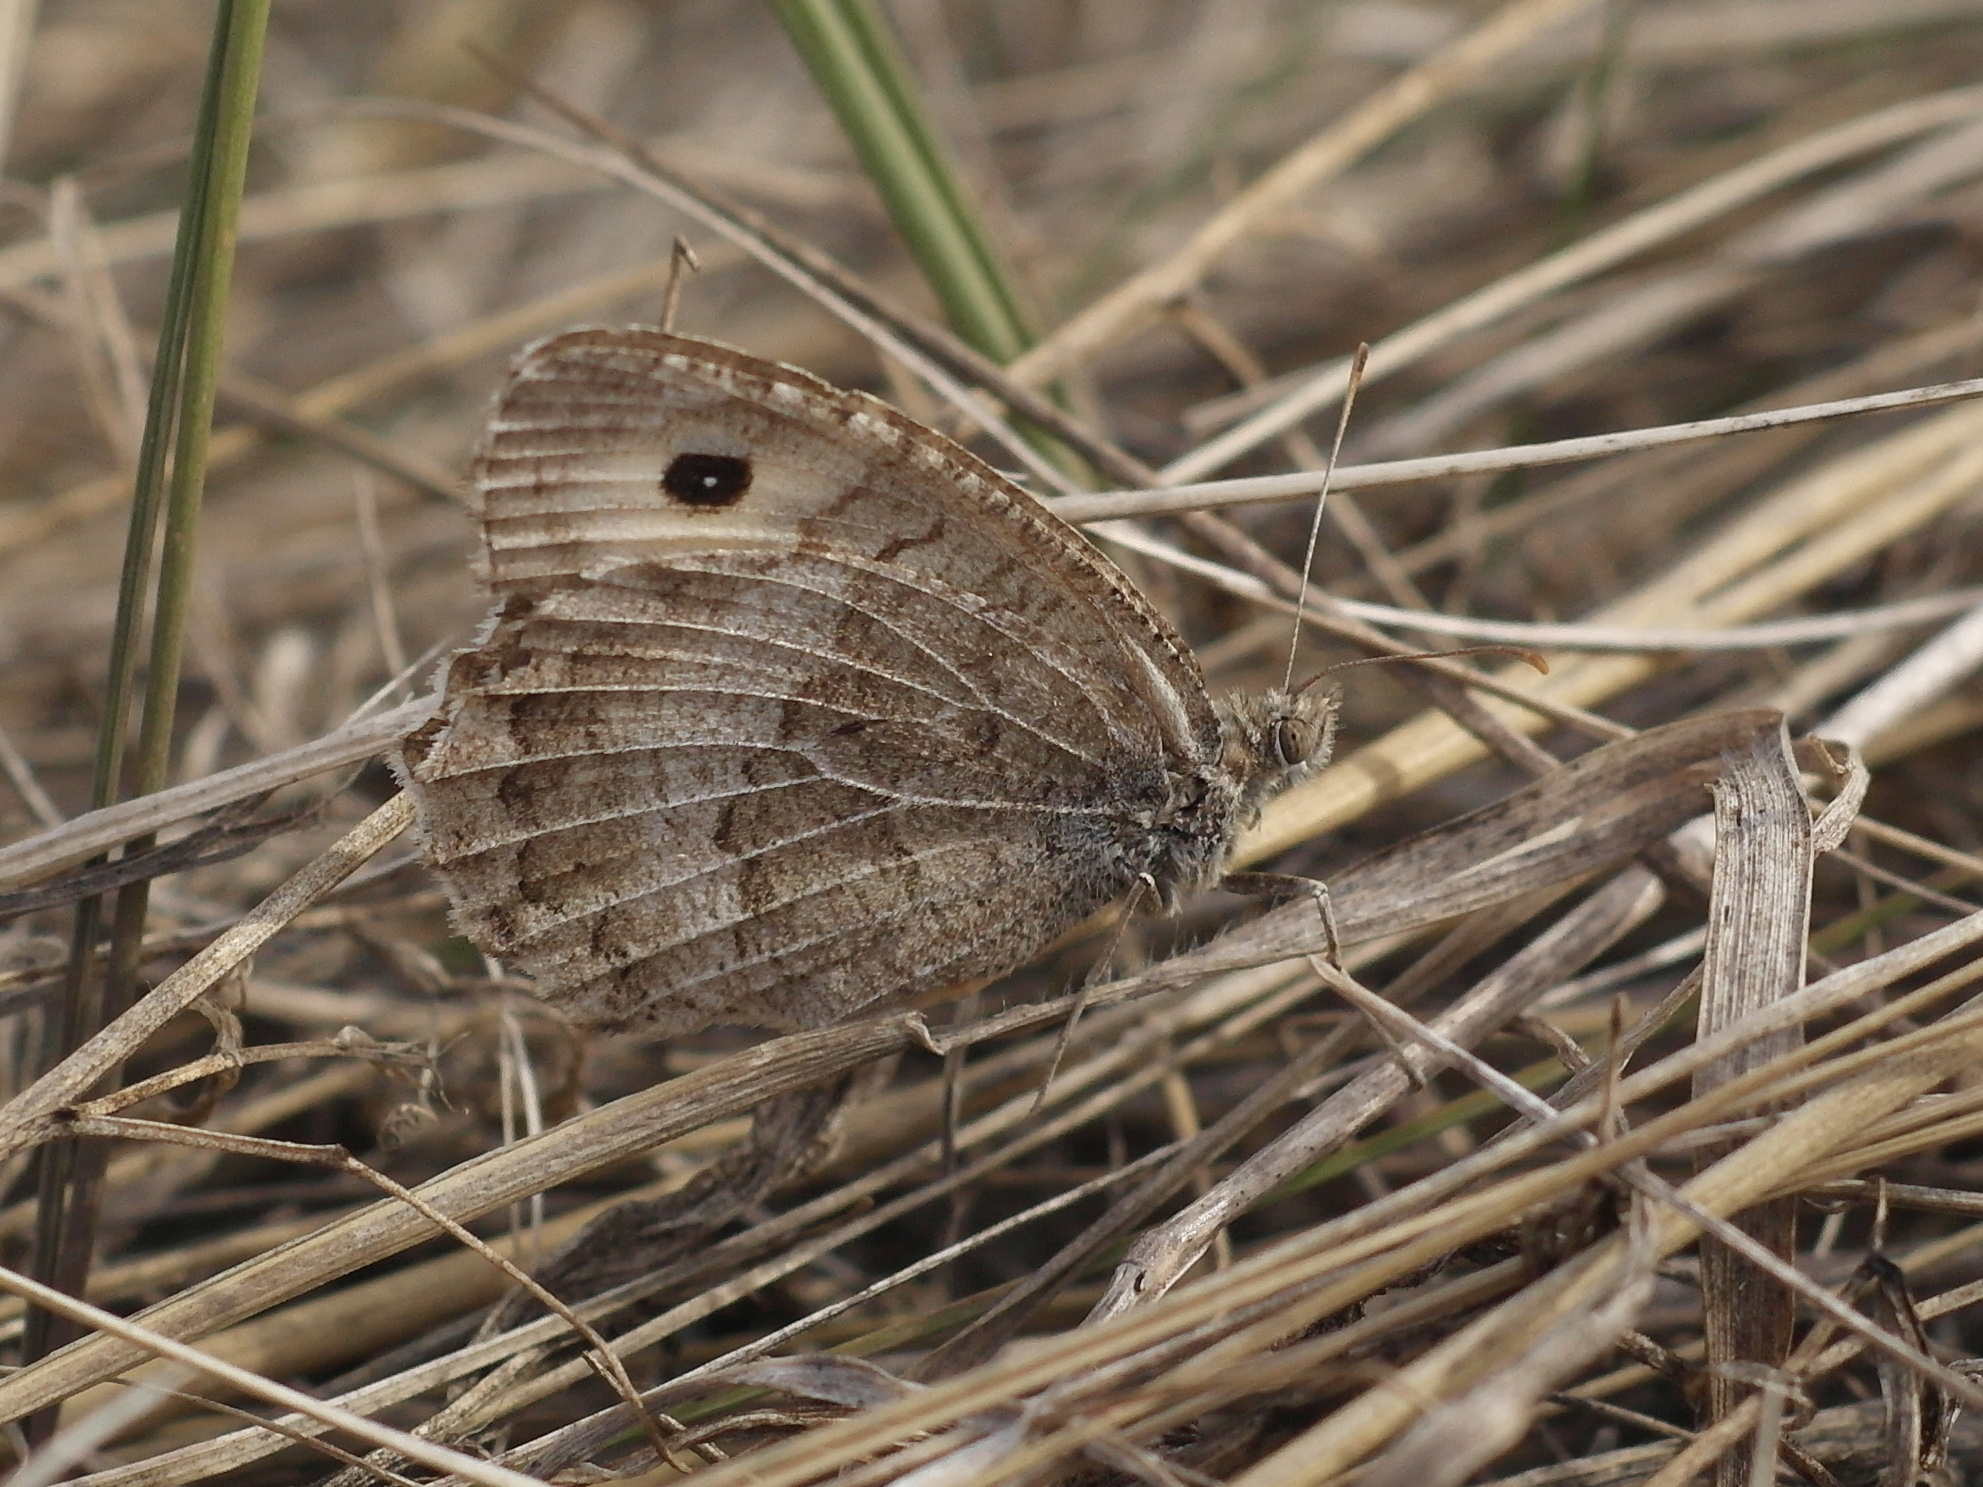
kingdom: Animalia
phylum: Arthropoda
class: Insecta
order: Lepidoptera
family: Nymphalidae
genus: Arethusana
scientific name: Arethusana arethusa
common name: False grayling
